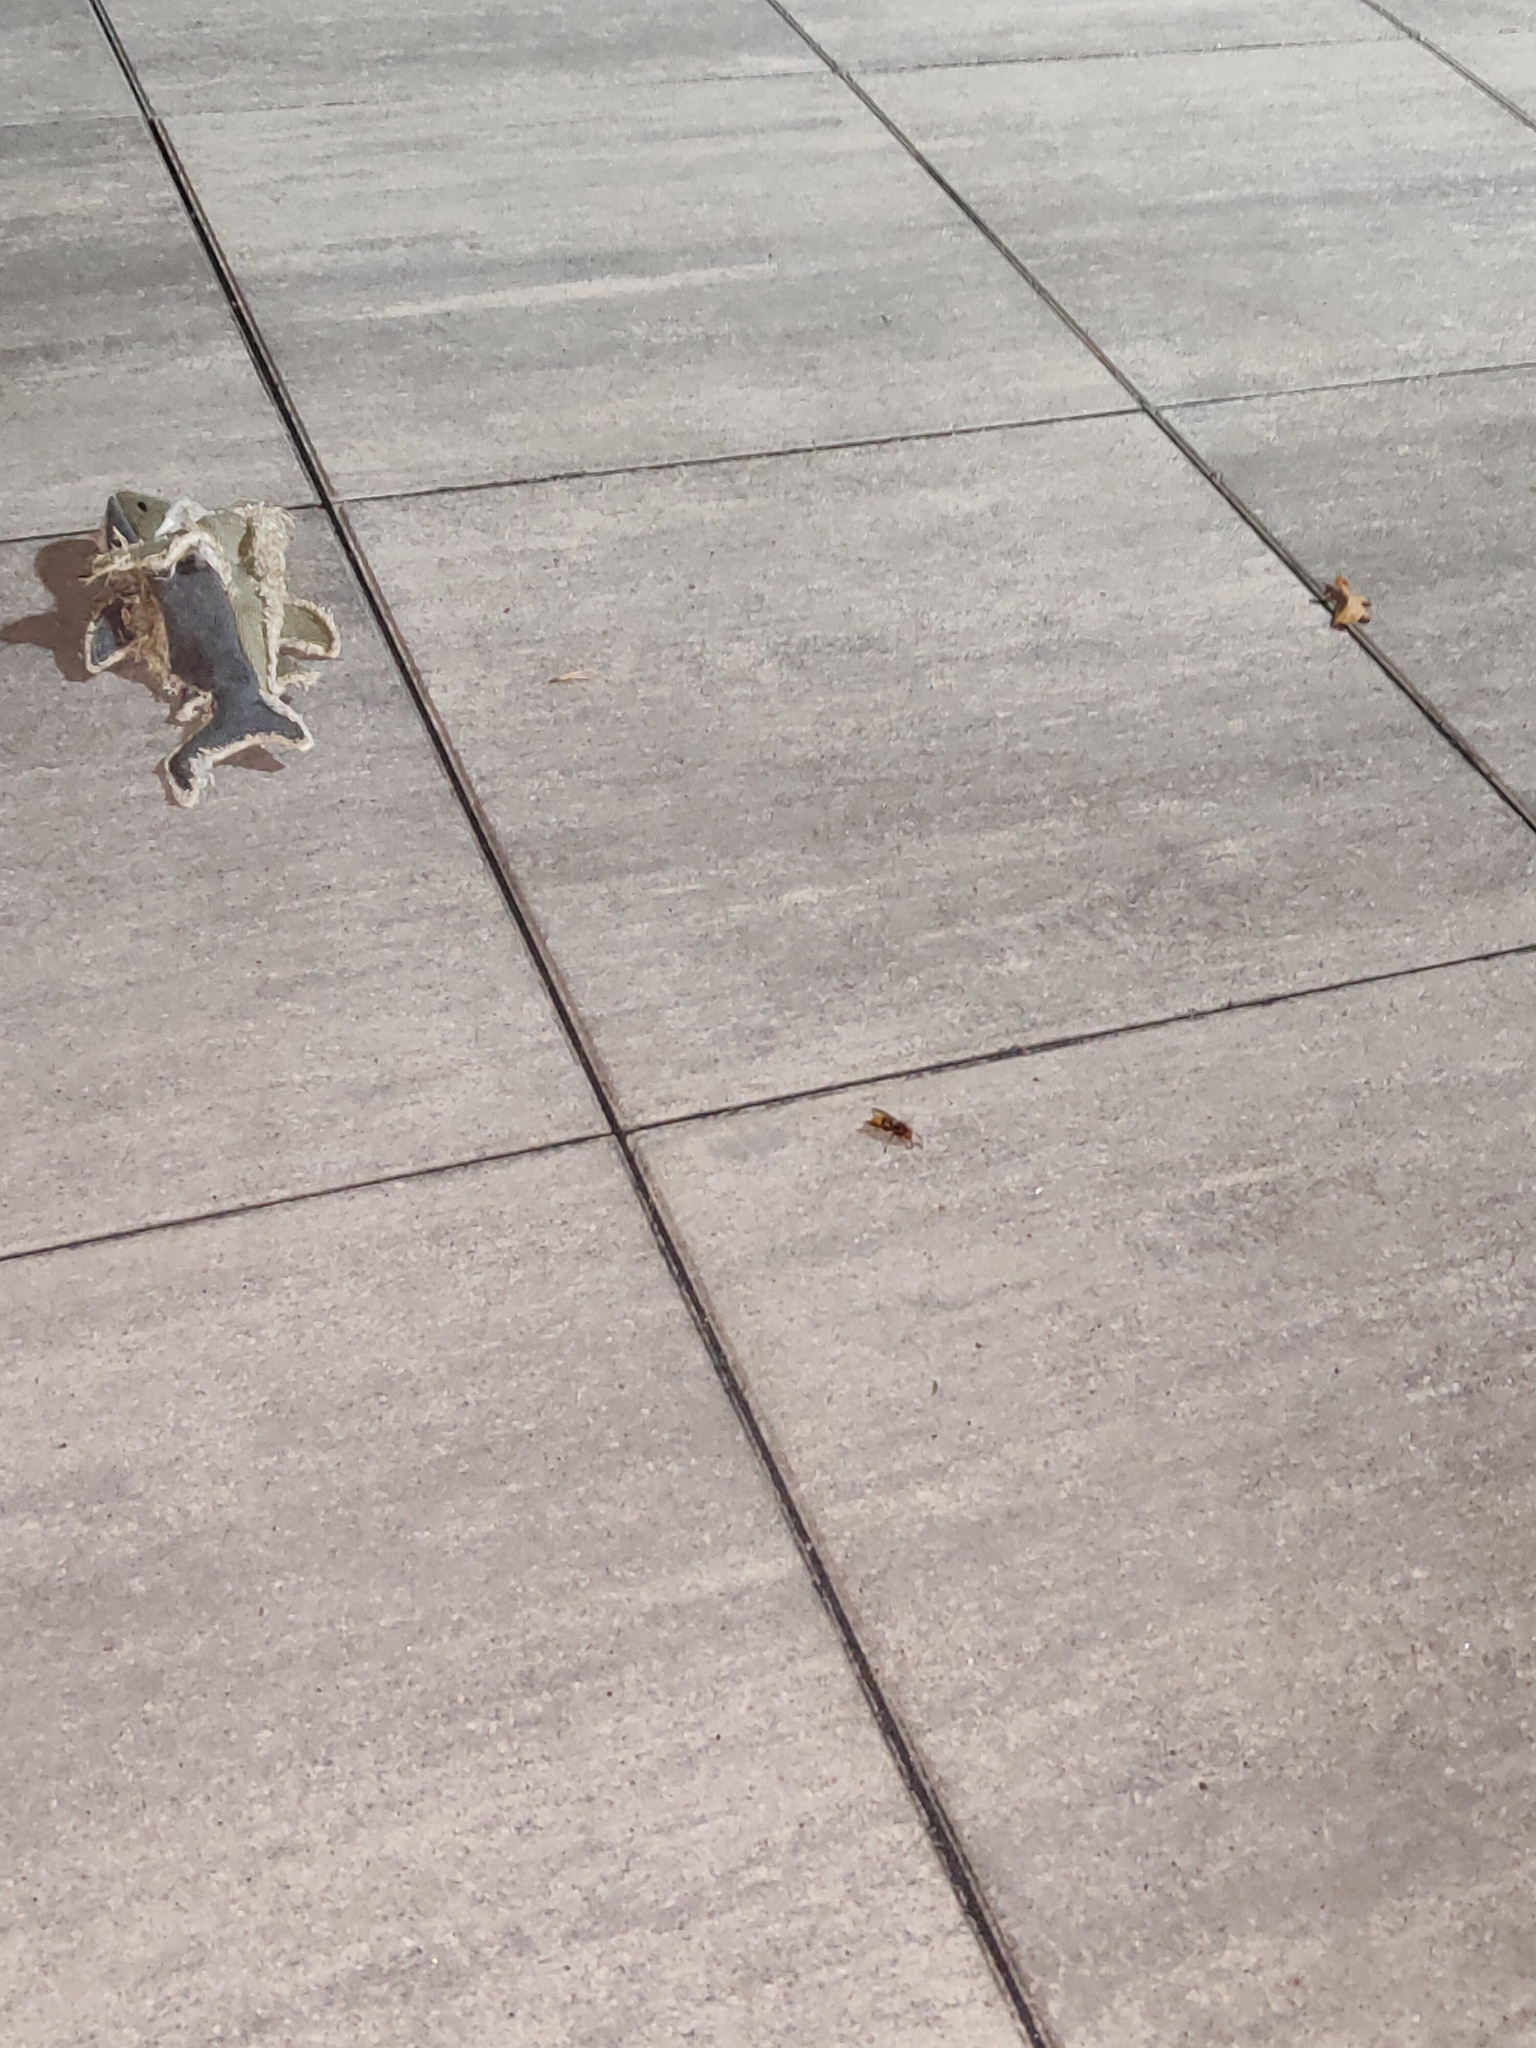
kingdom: Animalia
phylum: Arthropoda
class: Insecta
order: Hymenoptera
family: Vespidae
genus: Vespa
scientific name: Vespa crabro
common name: Hornet
